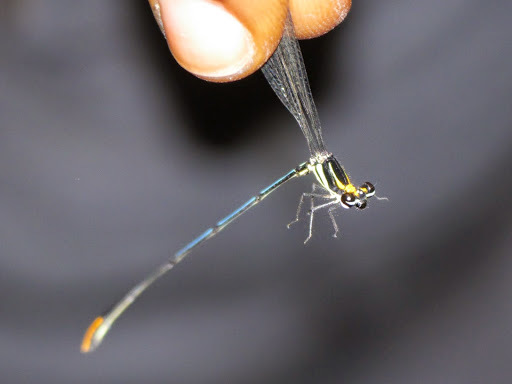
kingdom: Animalia
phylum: Arthropoda
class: Insecta
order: Odonata
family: Platycnemididae
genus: Allocnemis
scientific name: Allocnemis nigripes
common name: Rainbow yellowwing
